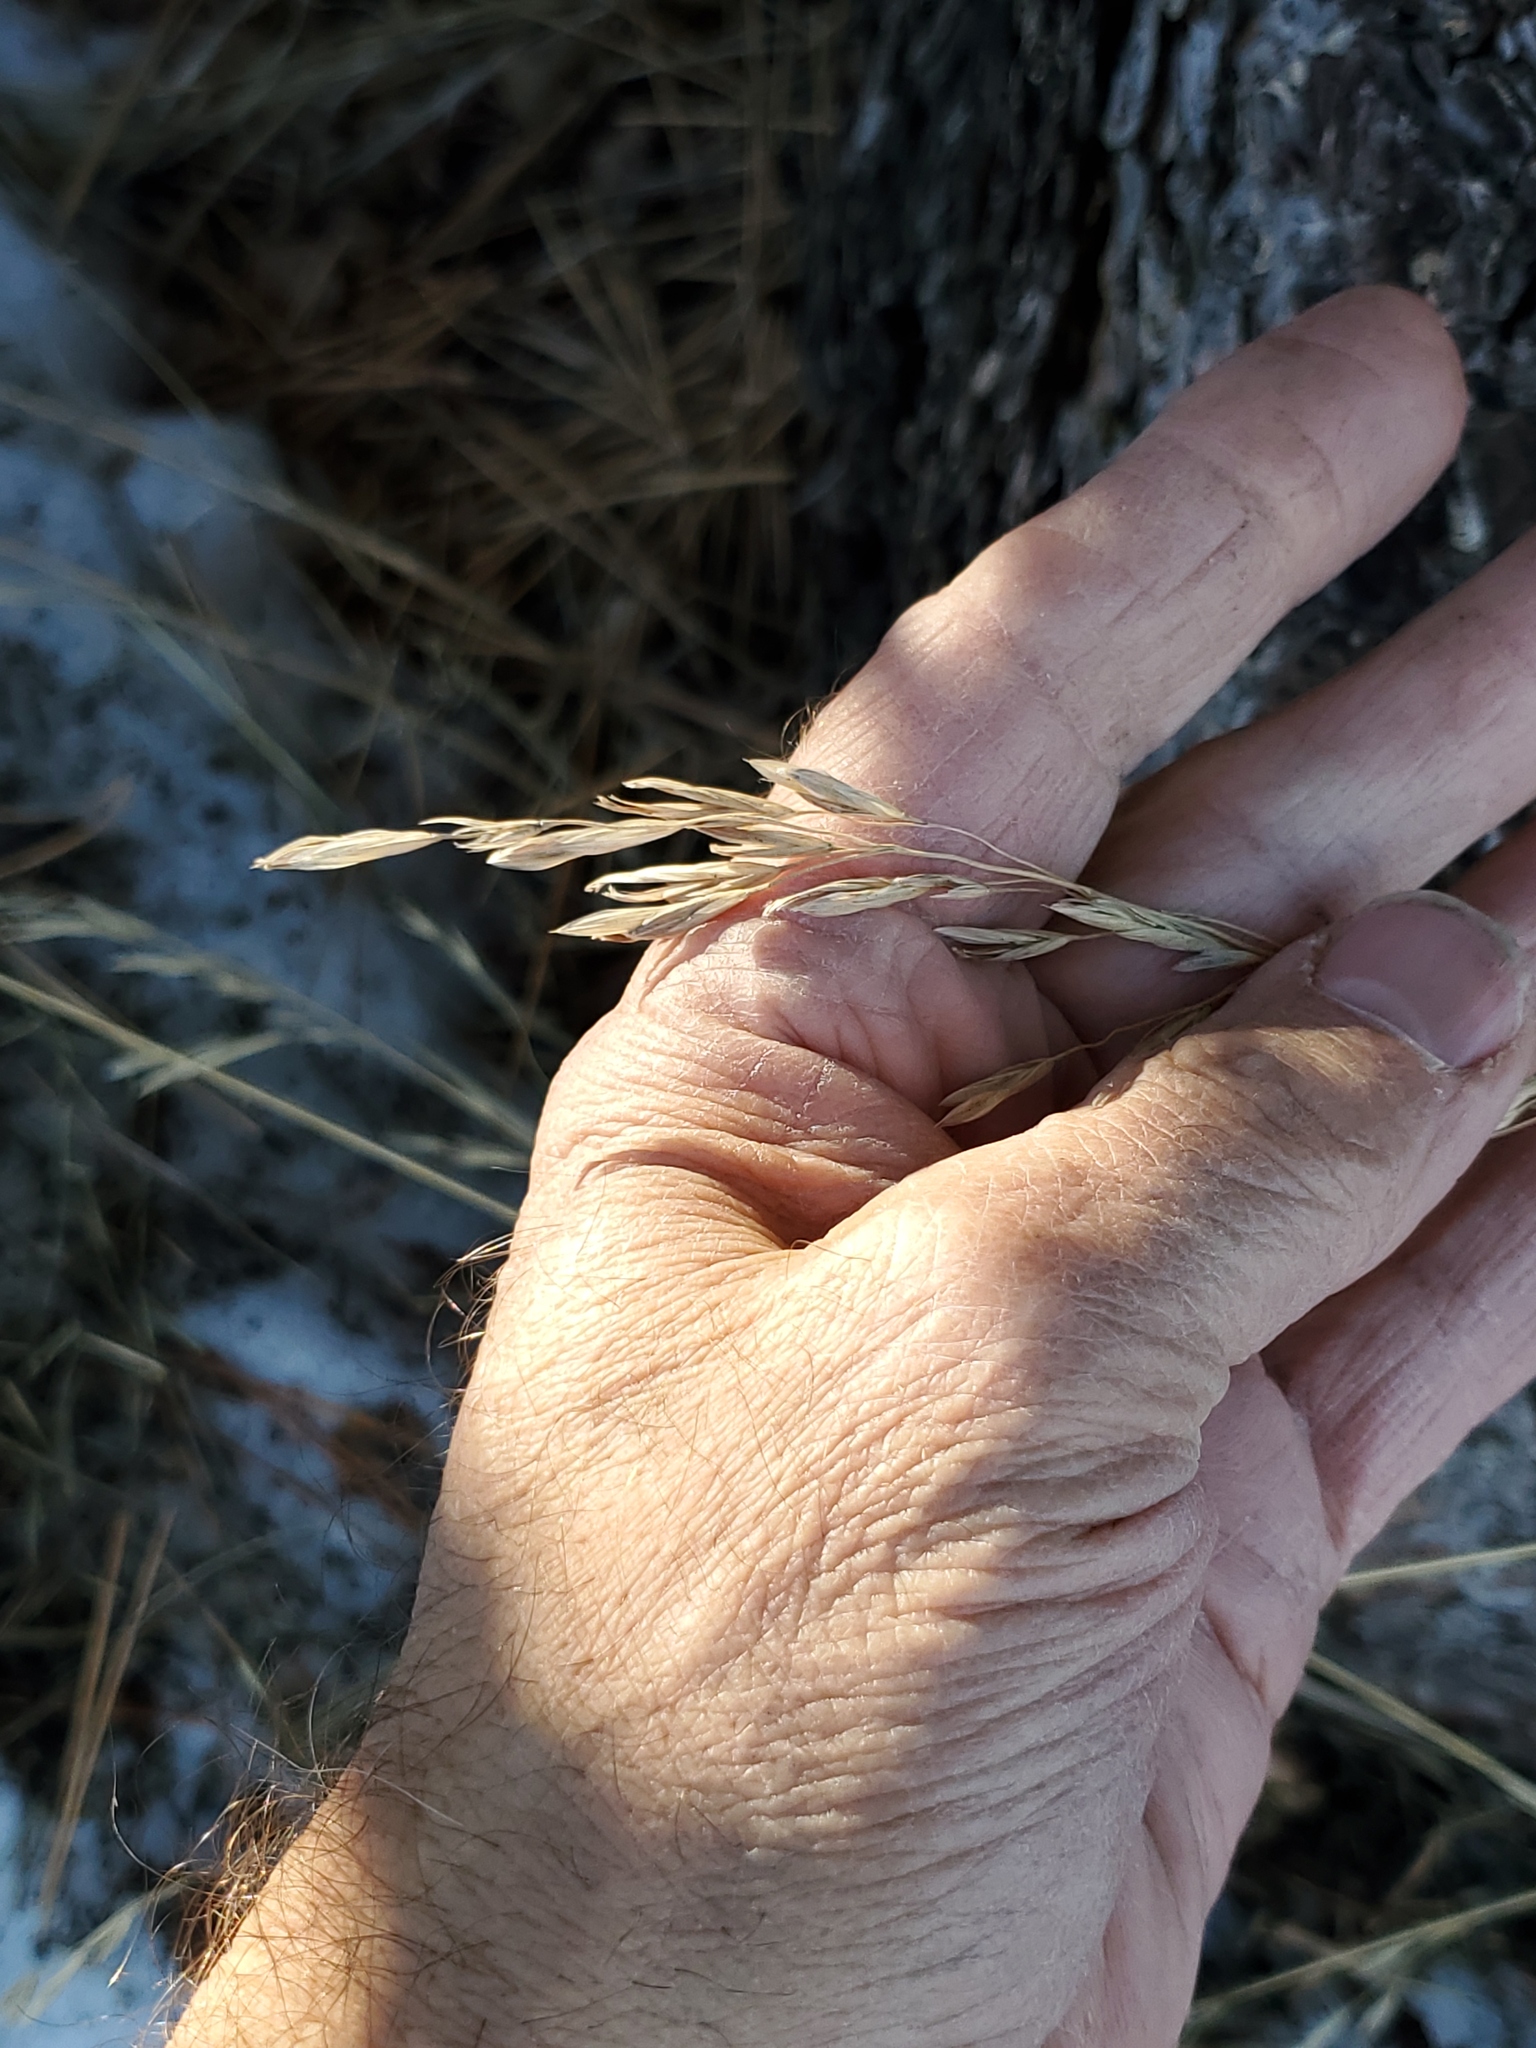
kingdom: Plantae
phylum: Tracheophyta
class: Liliopsida
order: Poales
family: Poaceae
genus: Bromus
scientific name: Bromus inermis
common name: Smooth brome
